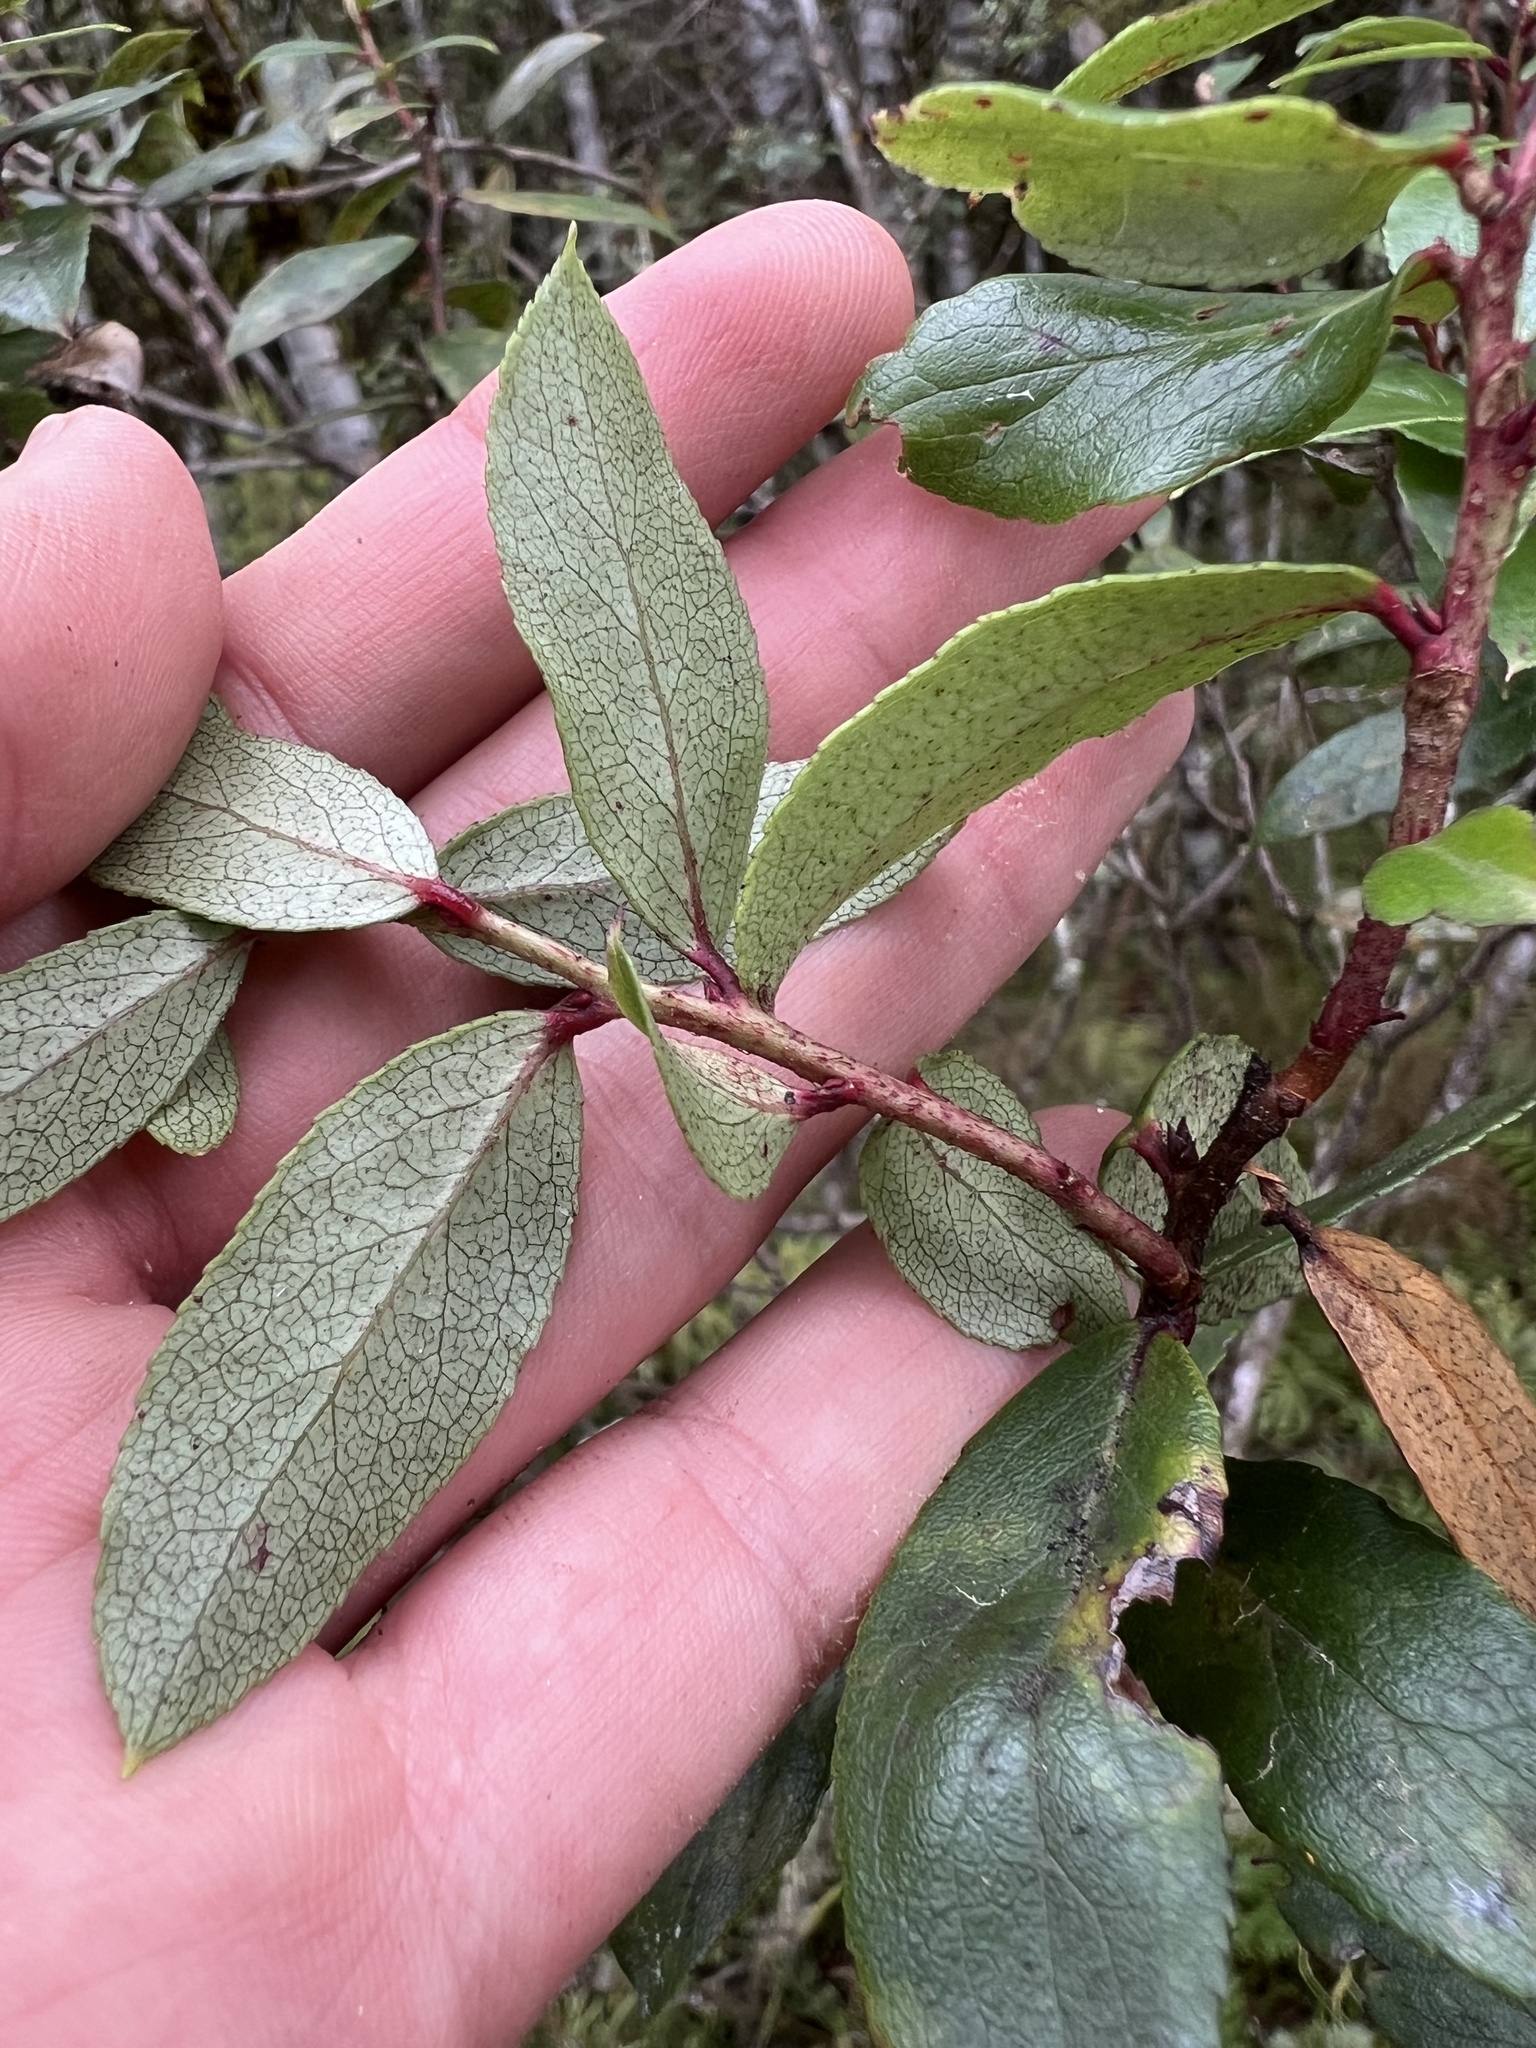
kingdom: Plantae
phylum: Tracheophyta
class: Magnoliopsida
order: Ericales
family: Ericaceae
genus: Gaultheria
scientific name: Gaultheria paniculata
